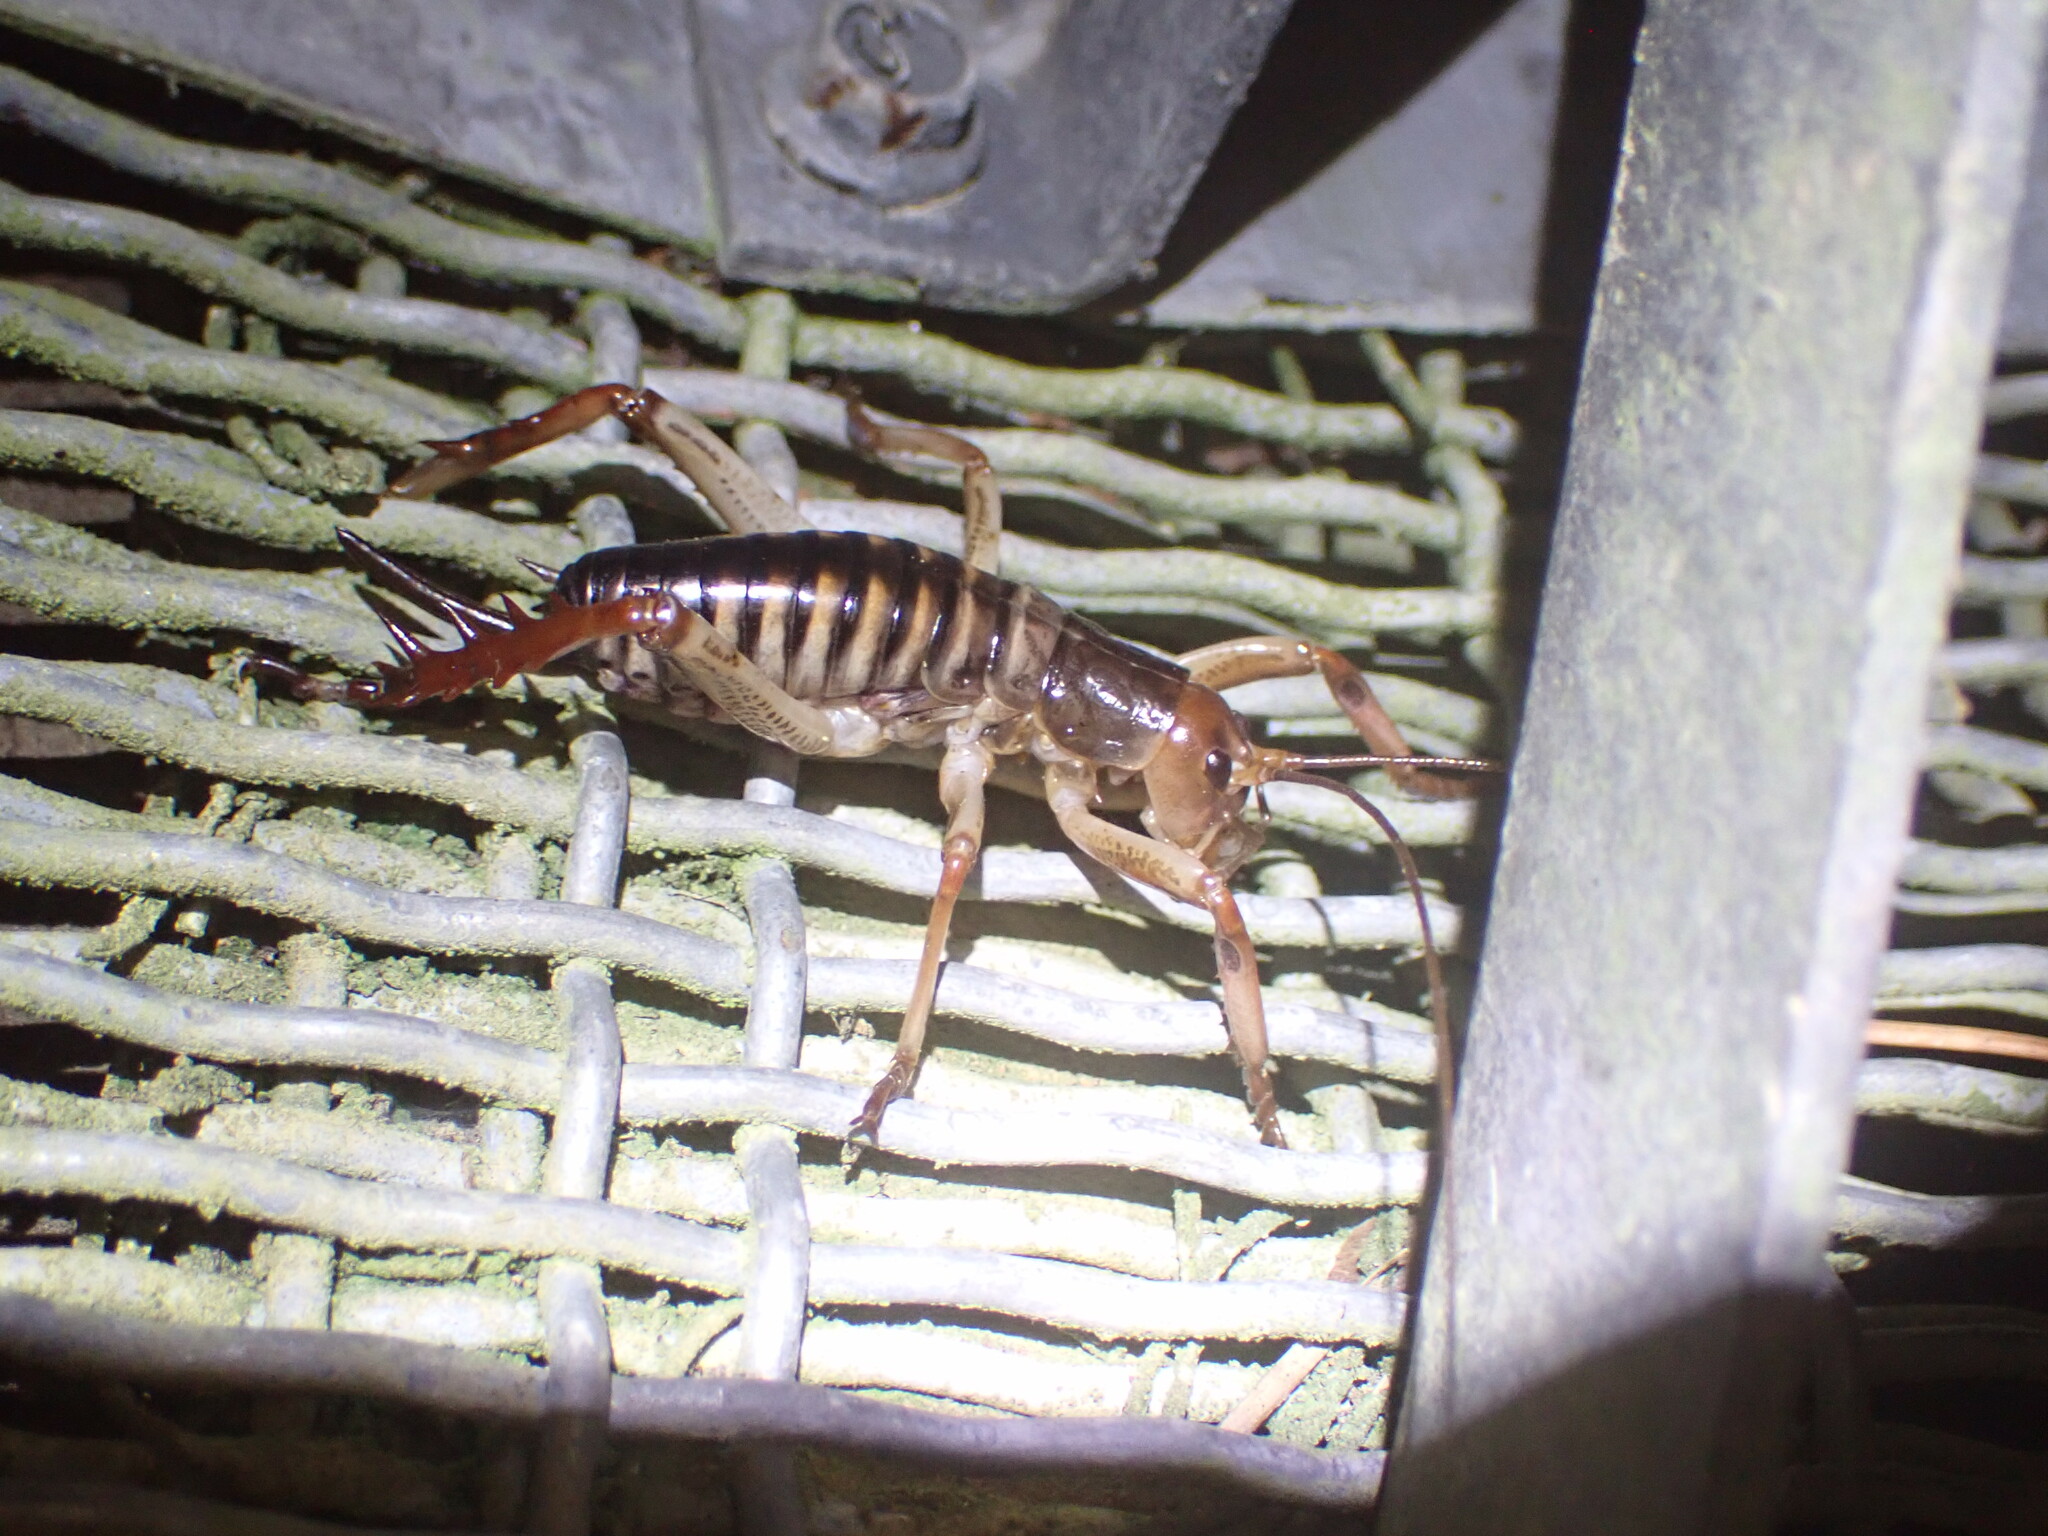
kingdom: Animalia
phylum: Arthropoda
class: Insecta
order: Orthoptera
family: Anostostomatidae
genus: Hemideina
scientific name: Hemideina crassidens
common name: Wellington tree weta
